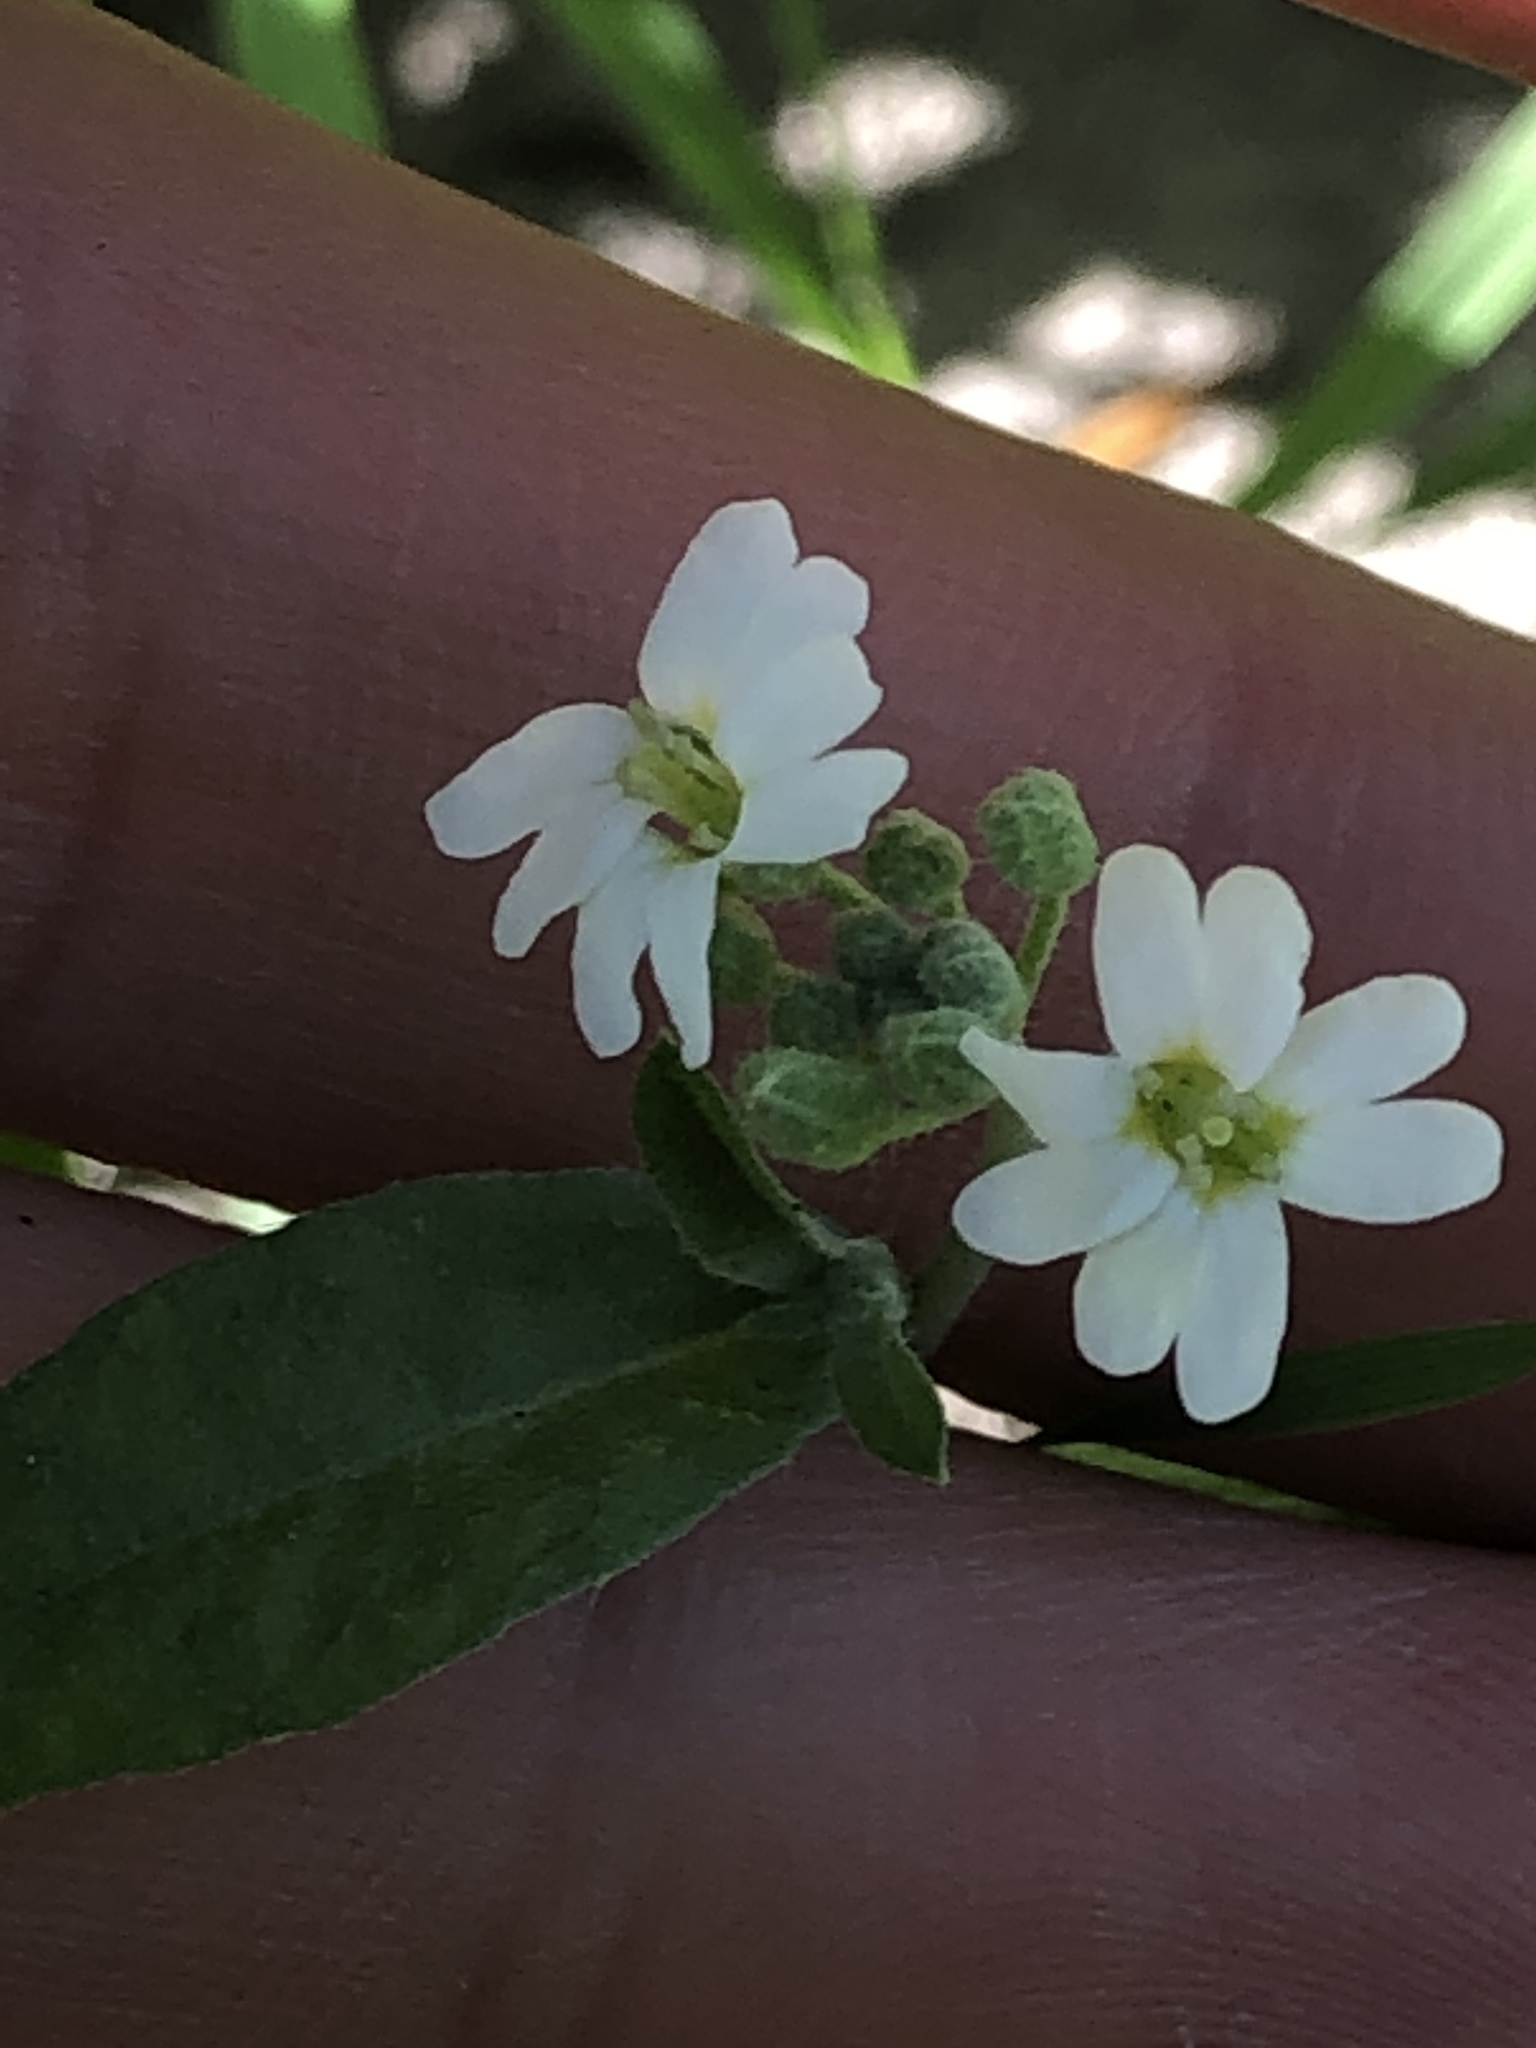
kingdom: Plantae
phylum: Tracheophyta
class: Magnoliopsida
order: Brassicales
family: Brassicaceae
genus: Berteroa
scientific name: Berteroa incana
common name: Hoary alison
